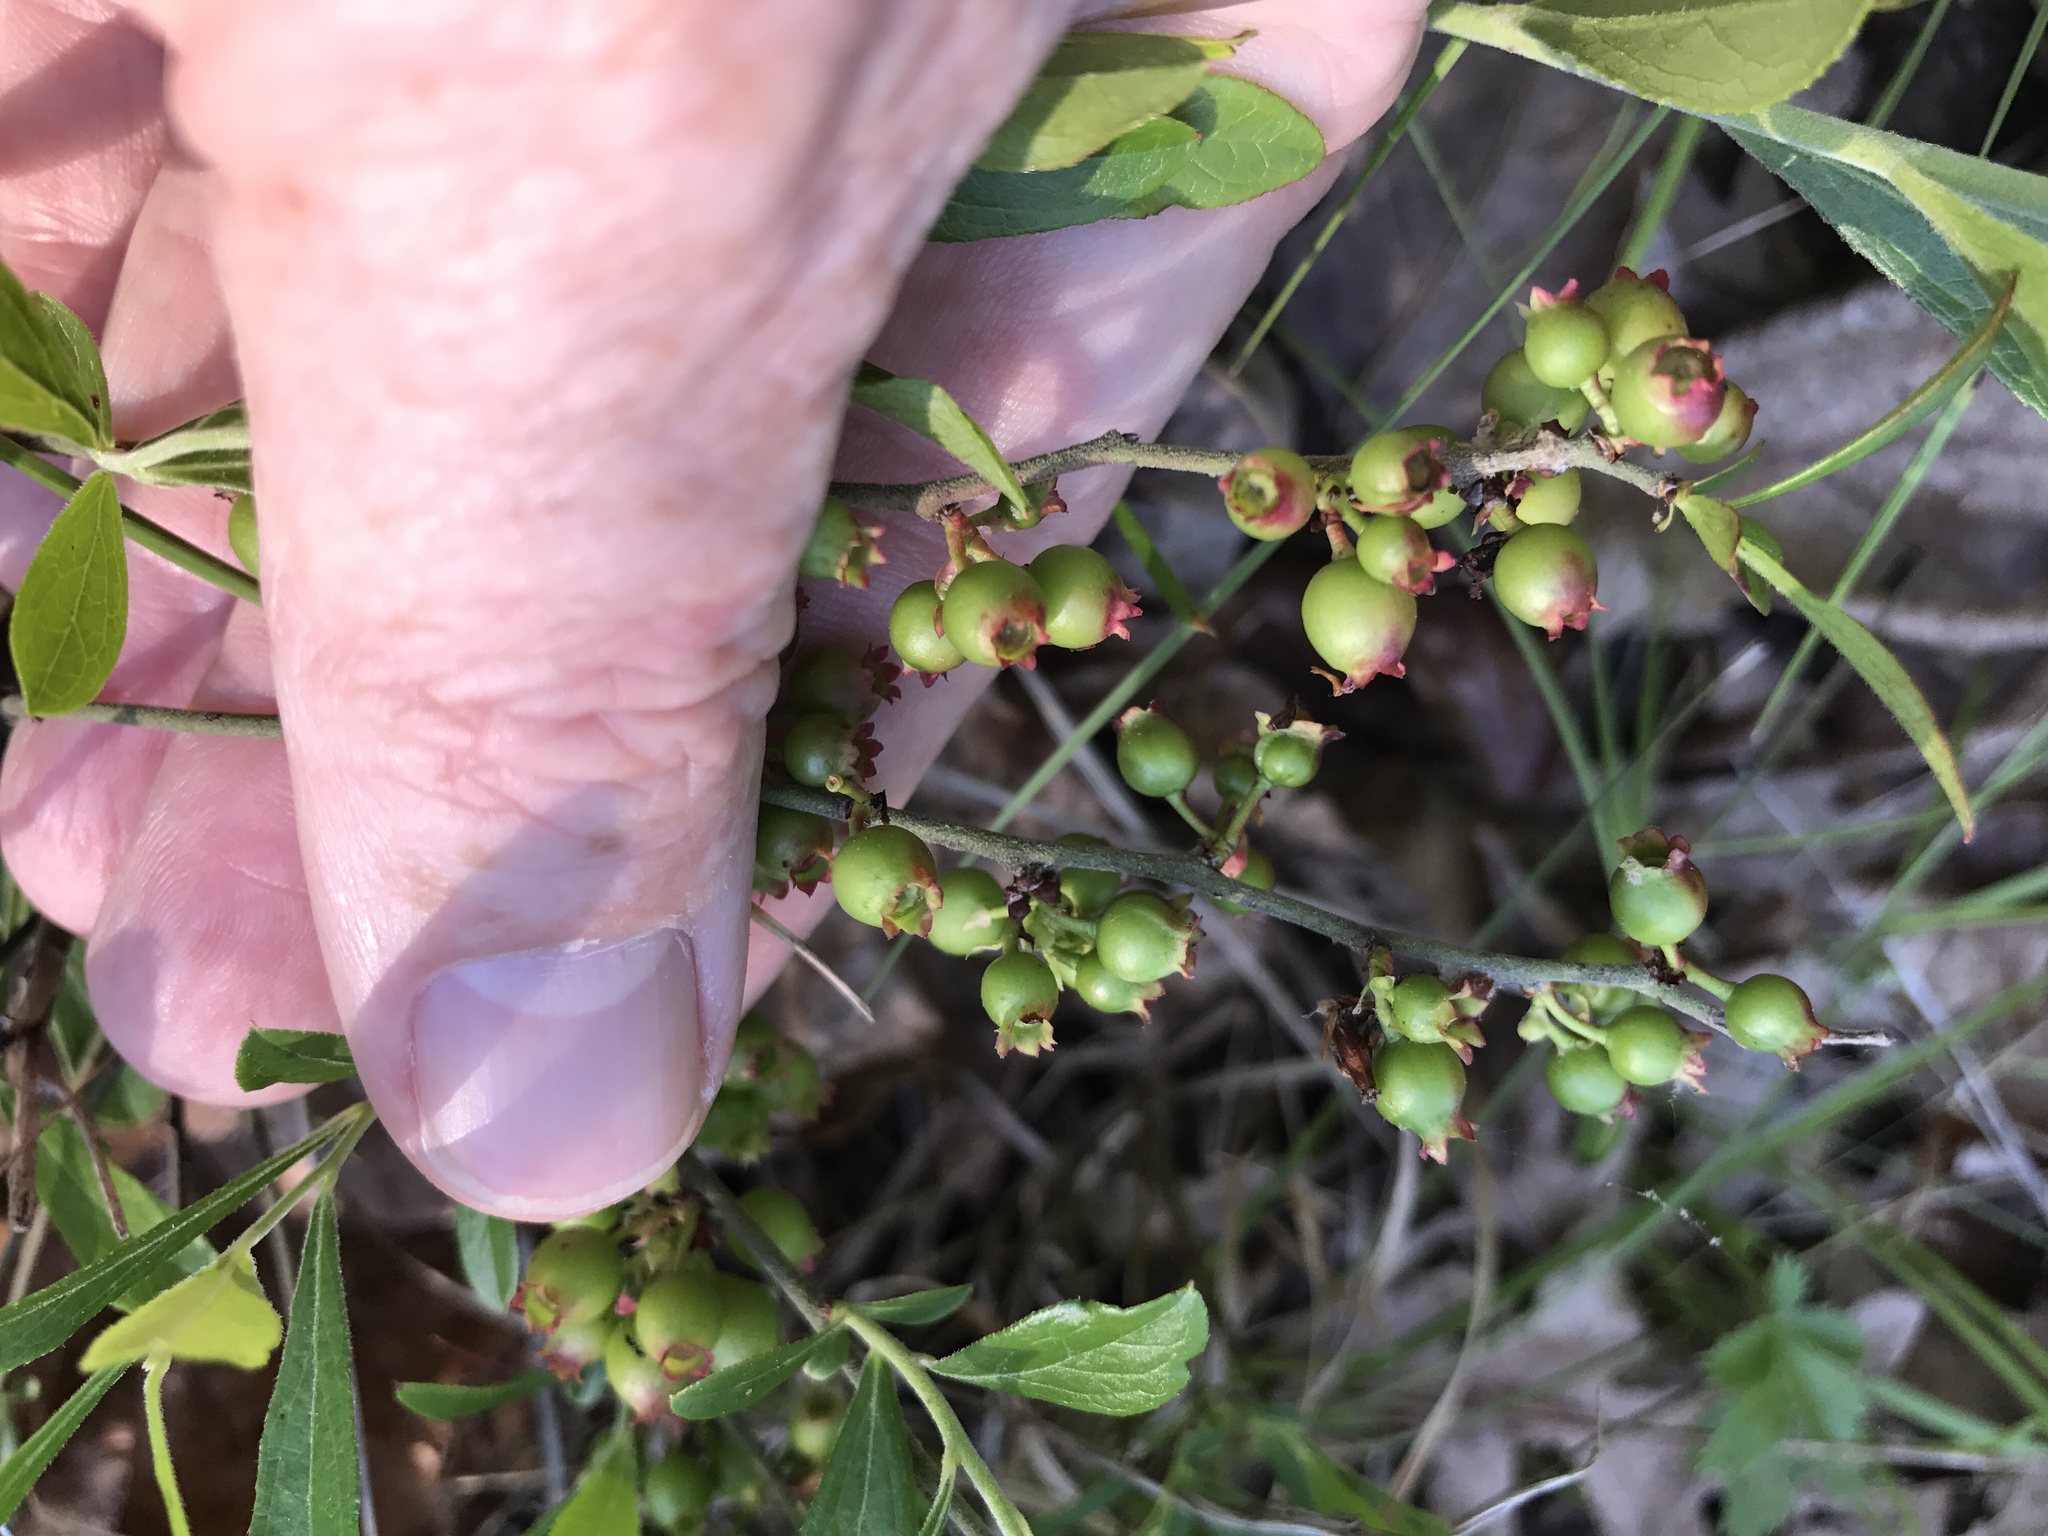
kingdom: Plantae
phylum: Tracheophyta
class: Magnoliopsida
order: Ericales
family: Ericaceae
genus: Vaccinium
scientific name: Vaccinium tenellum
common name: Southern blueberry
